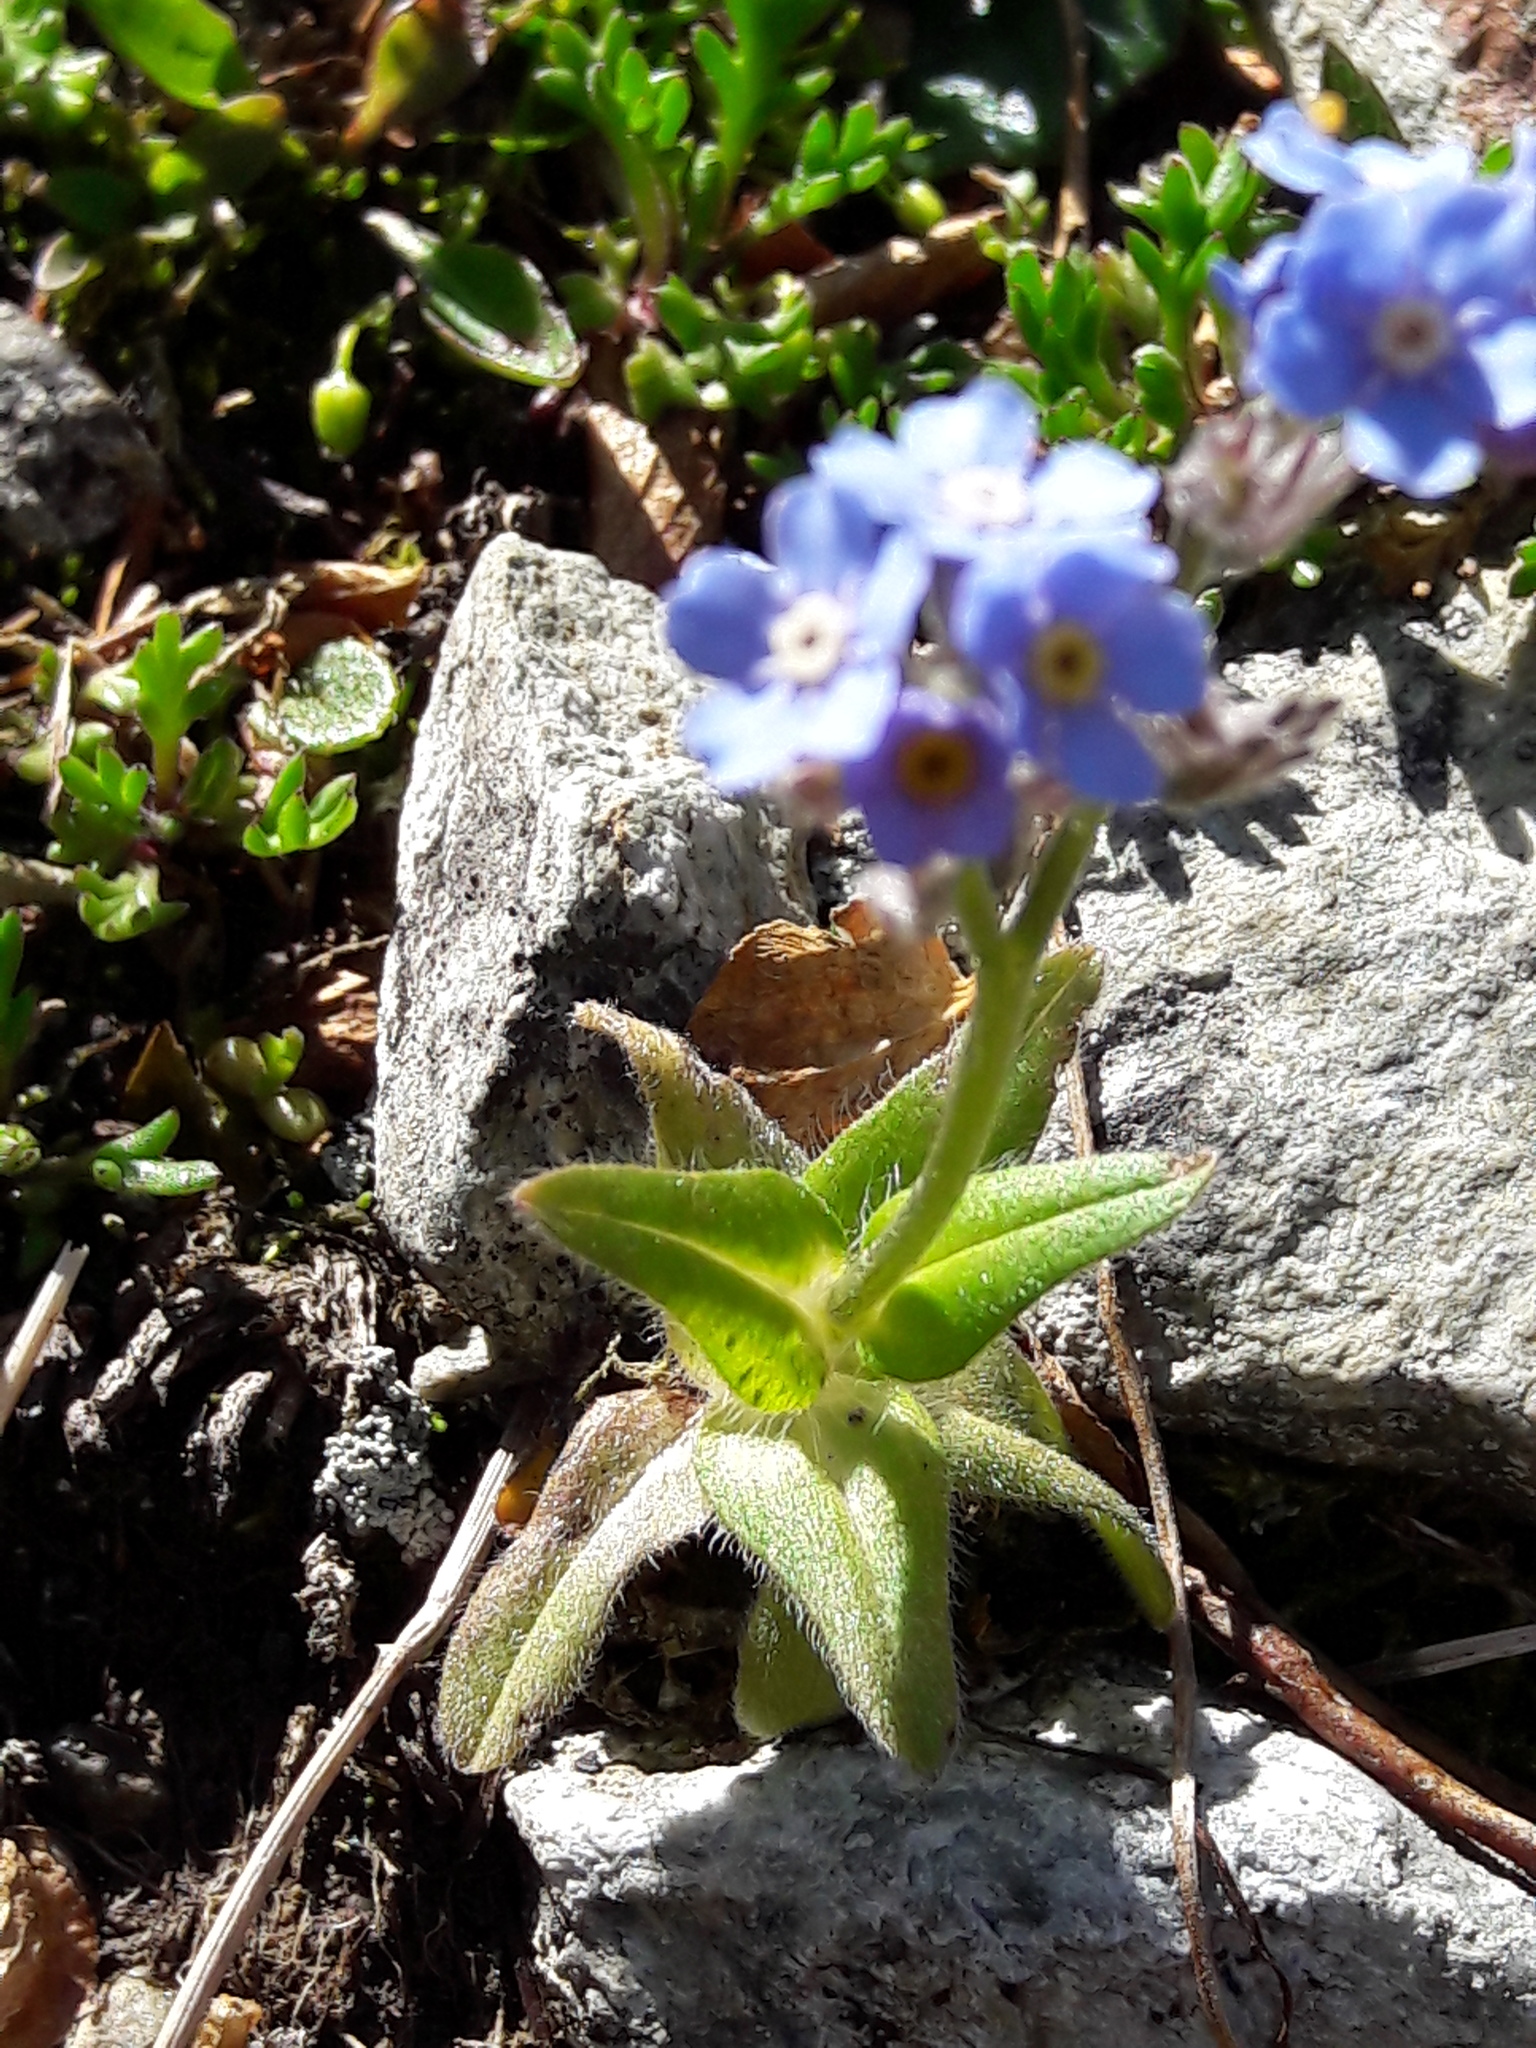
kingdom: Plantae
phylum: Tracheophyta
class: Magnoliopsida
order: Boraginales
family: Boraginaceae
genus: Myosotis
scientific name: Myosotis alpestris
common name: Alpine forget-me-not
